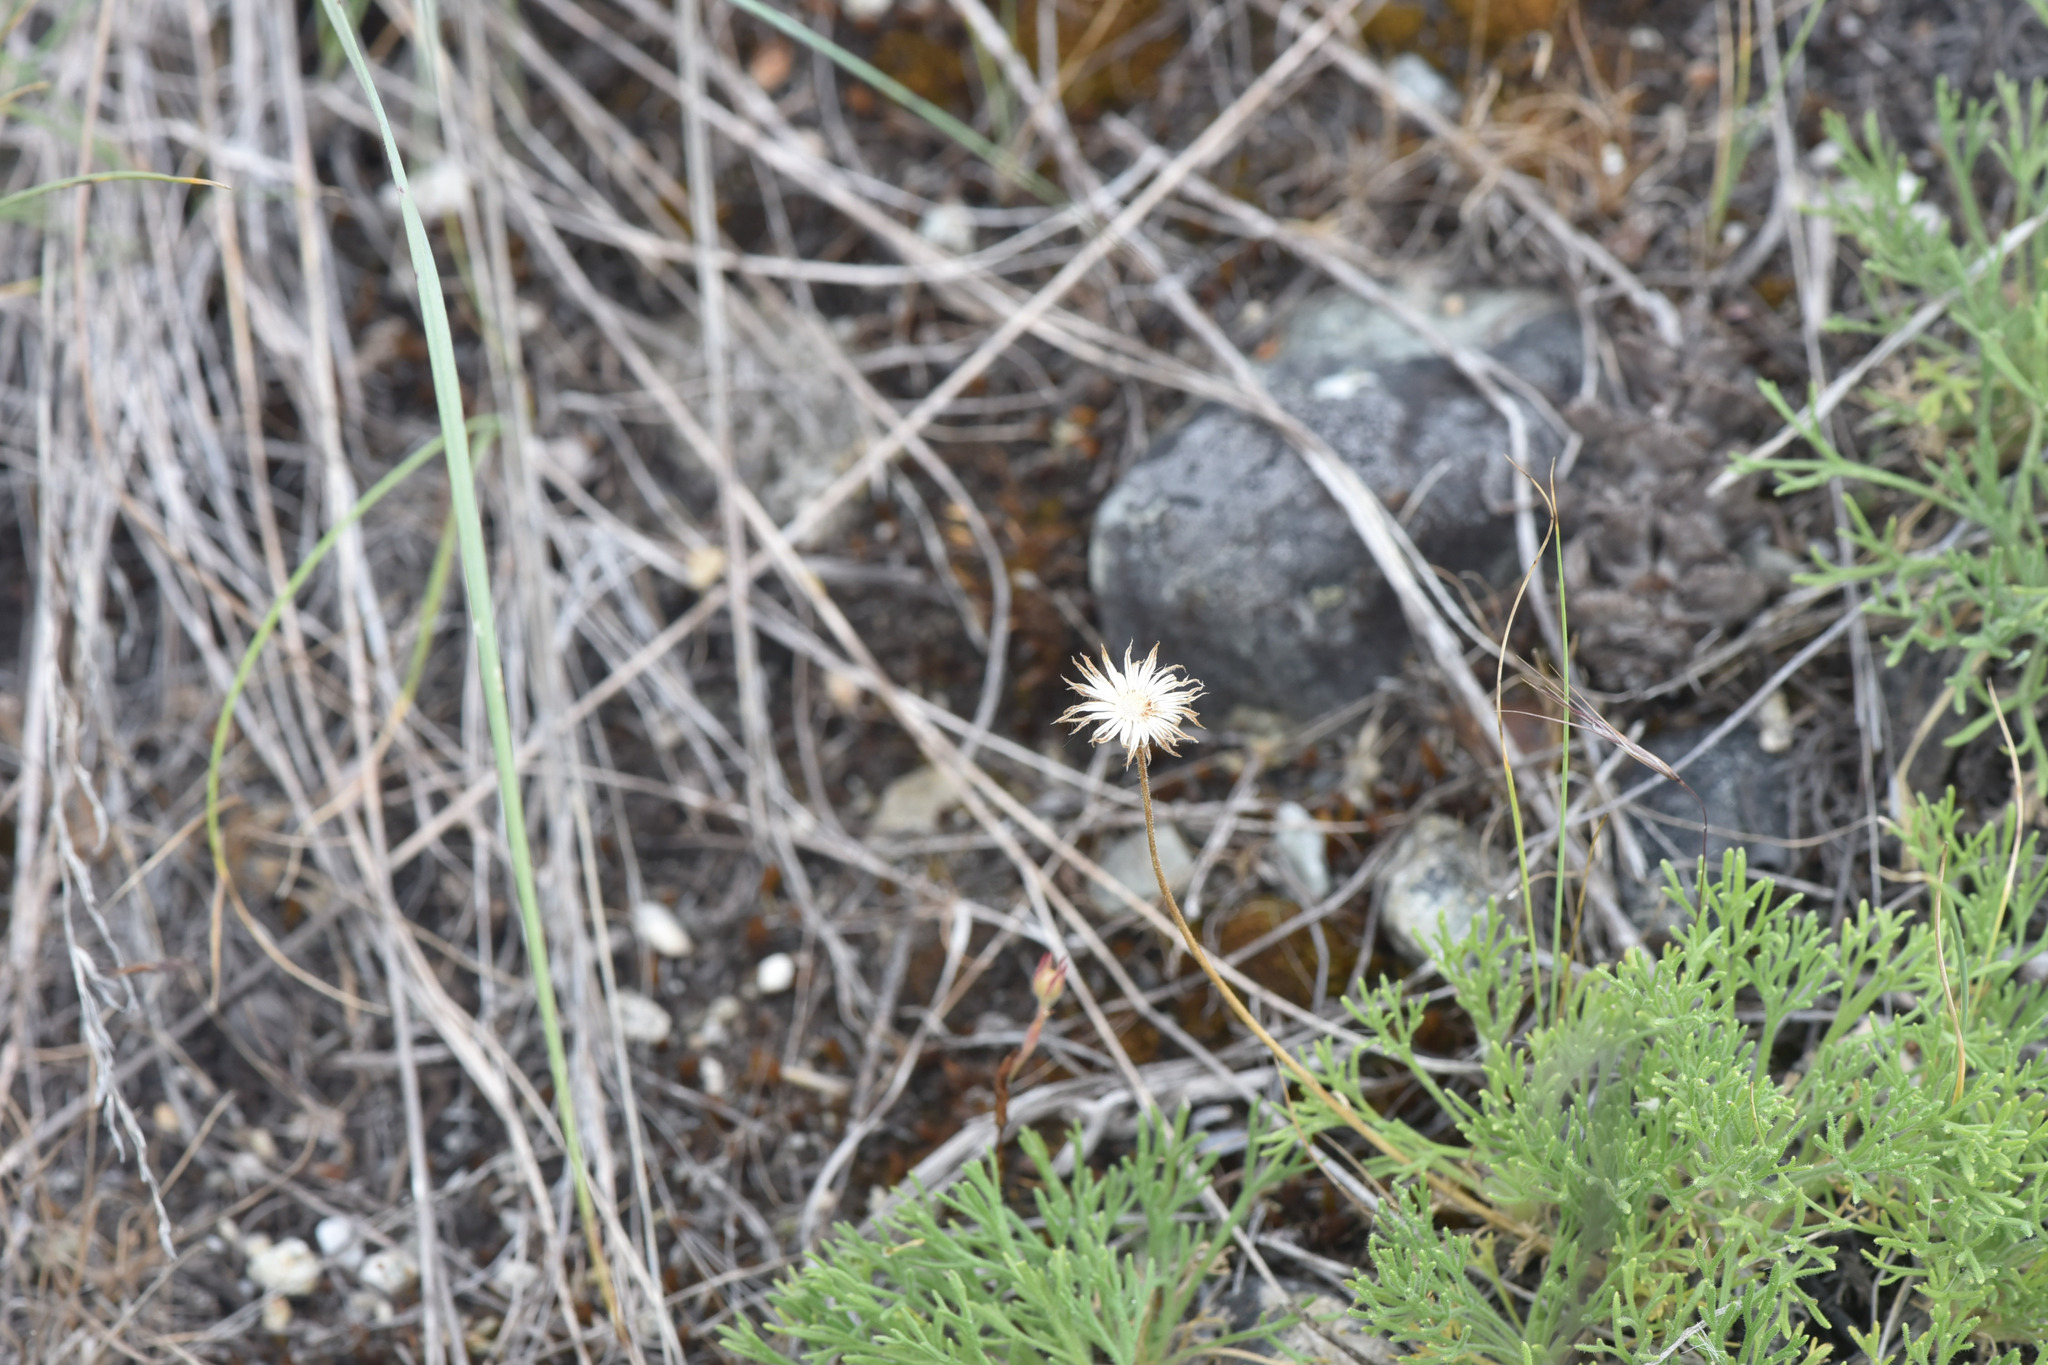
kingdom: Plantae
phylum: Tracheophyta
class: Magnoliopsida
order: Asterales
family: Asteraceae
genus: Erigeron
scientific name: Erigeron compositus
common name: Dwarf mountain fleabane
